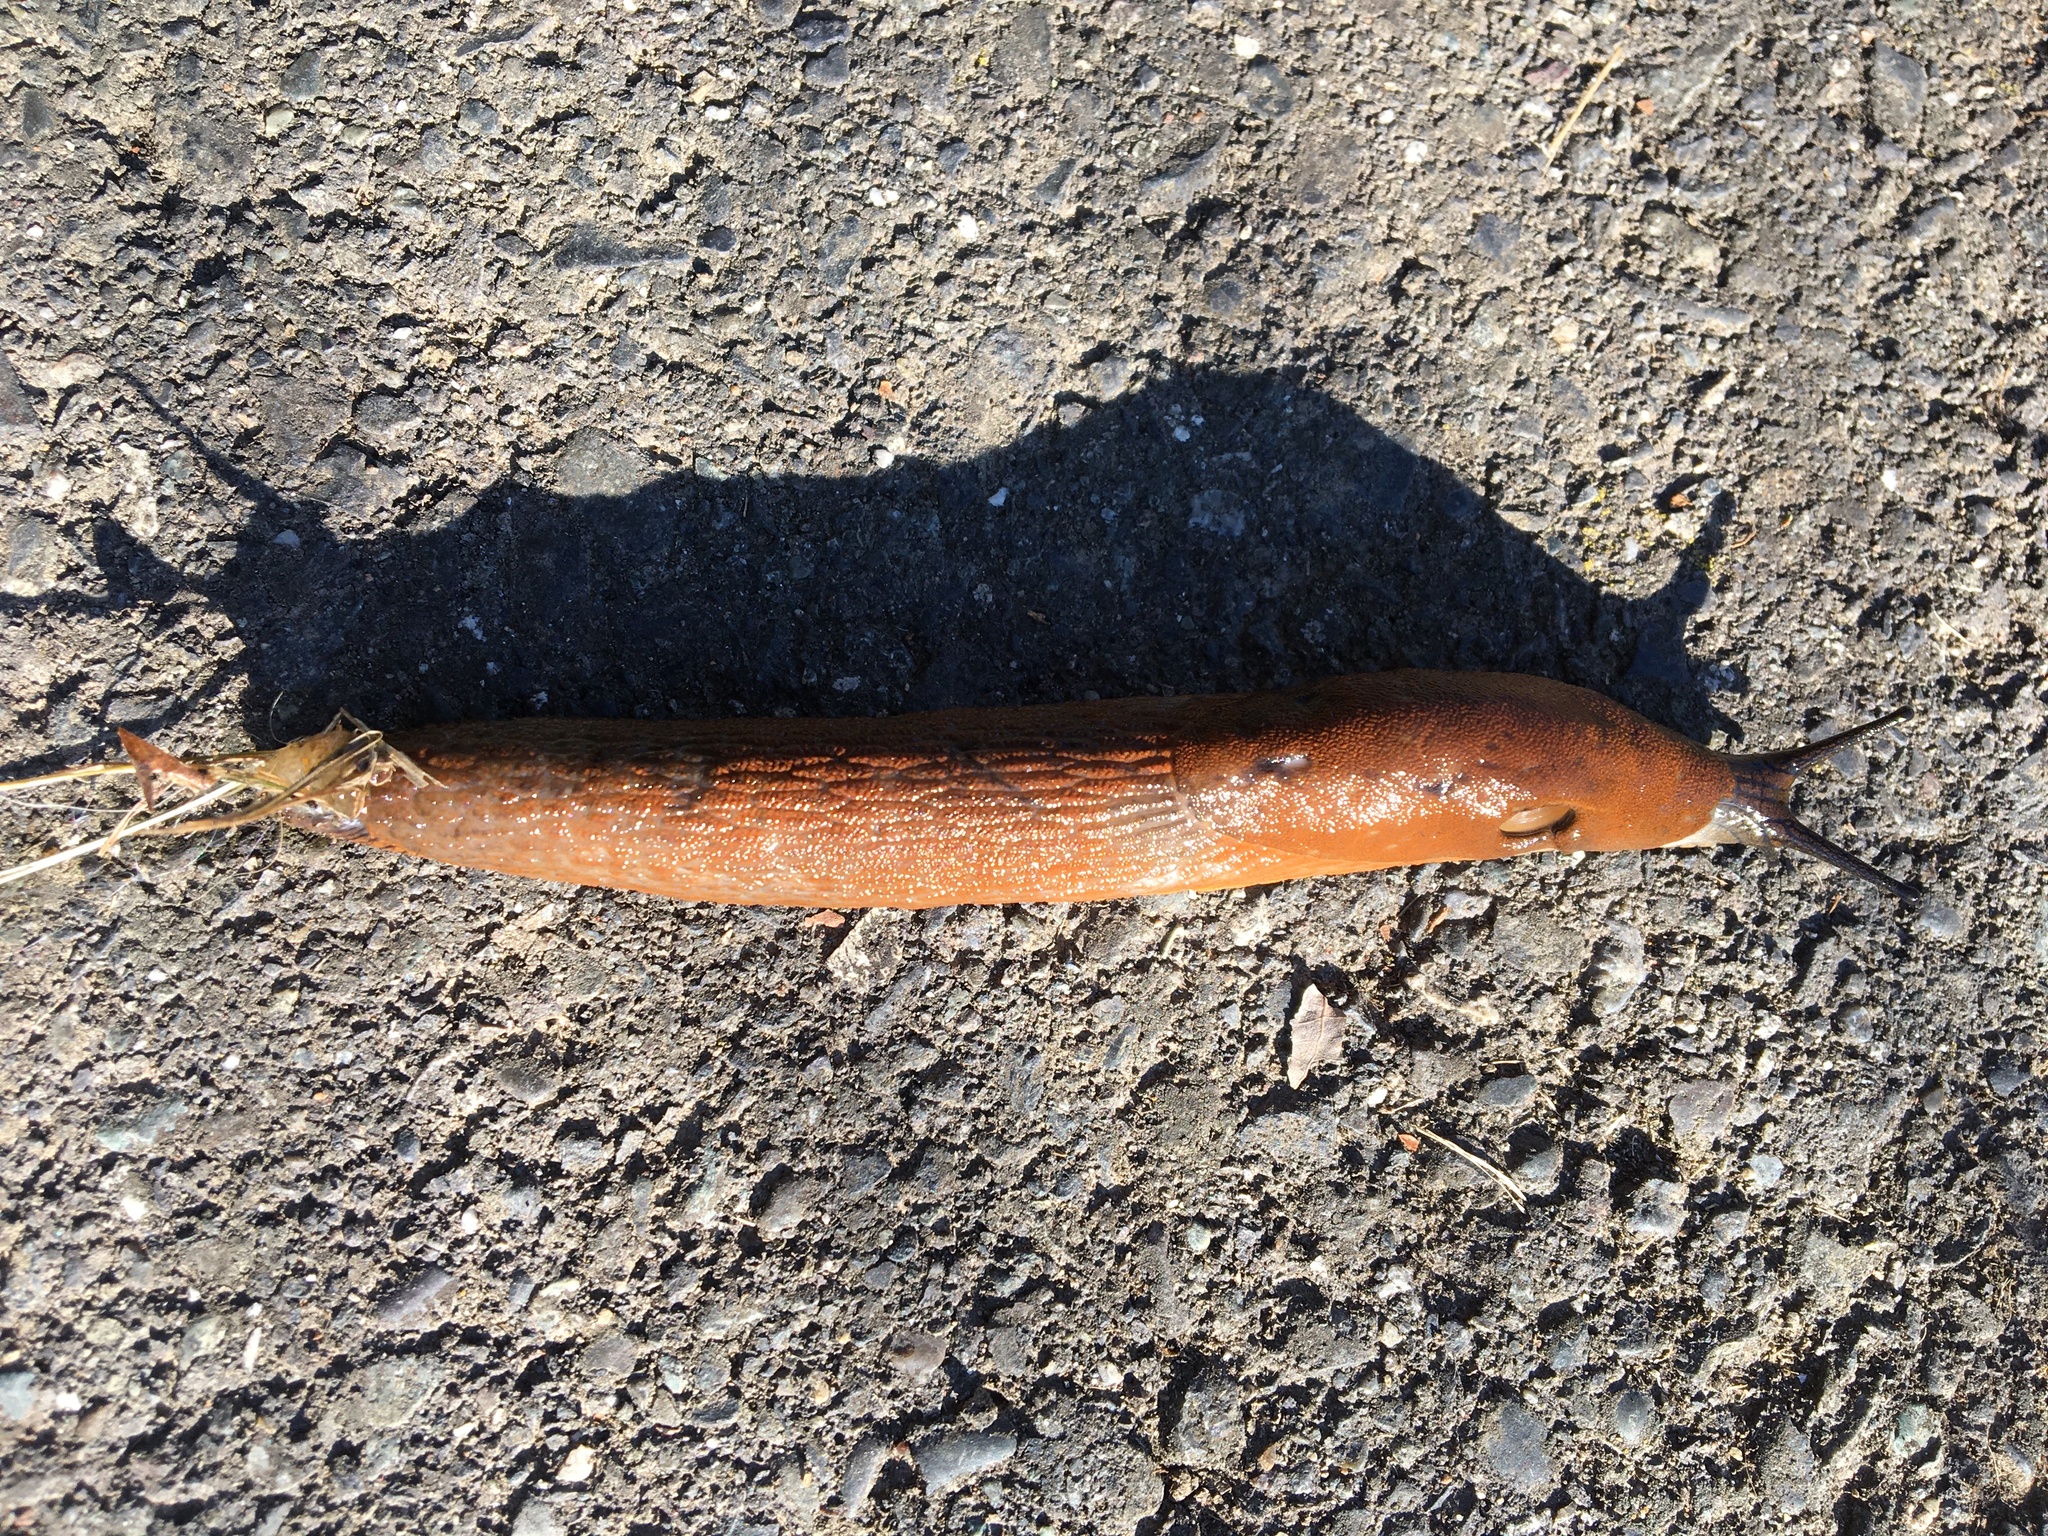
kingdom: Animalia
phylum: Mollusca
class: Gastropoda
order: Stylommatophora
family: Arionidae
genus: Arion
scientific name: Arion
